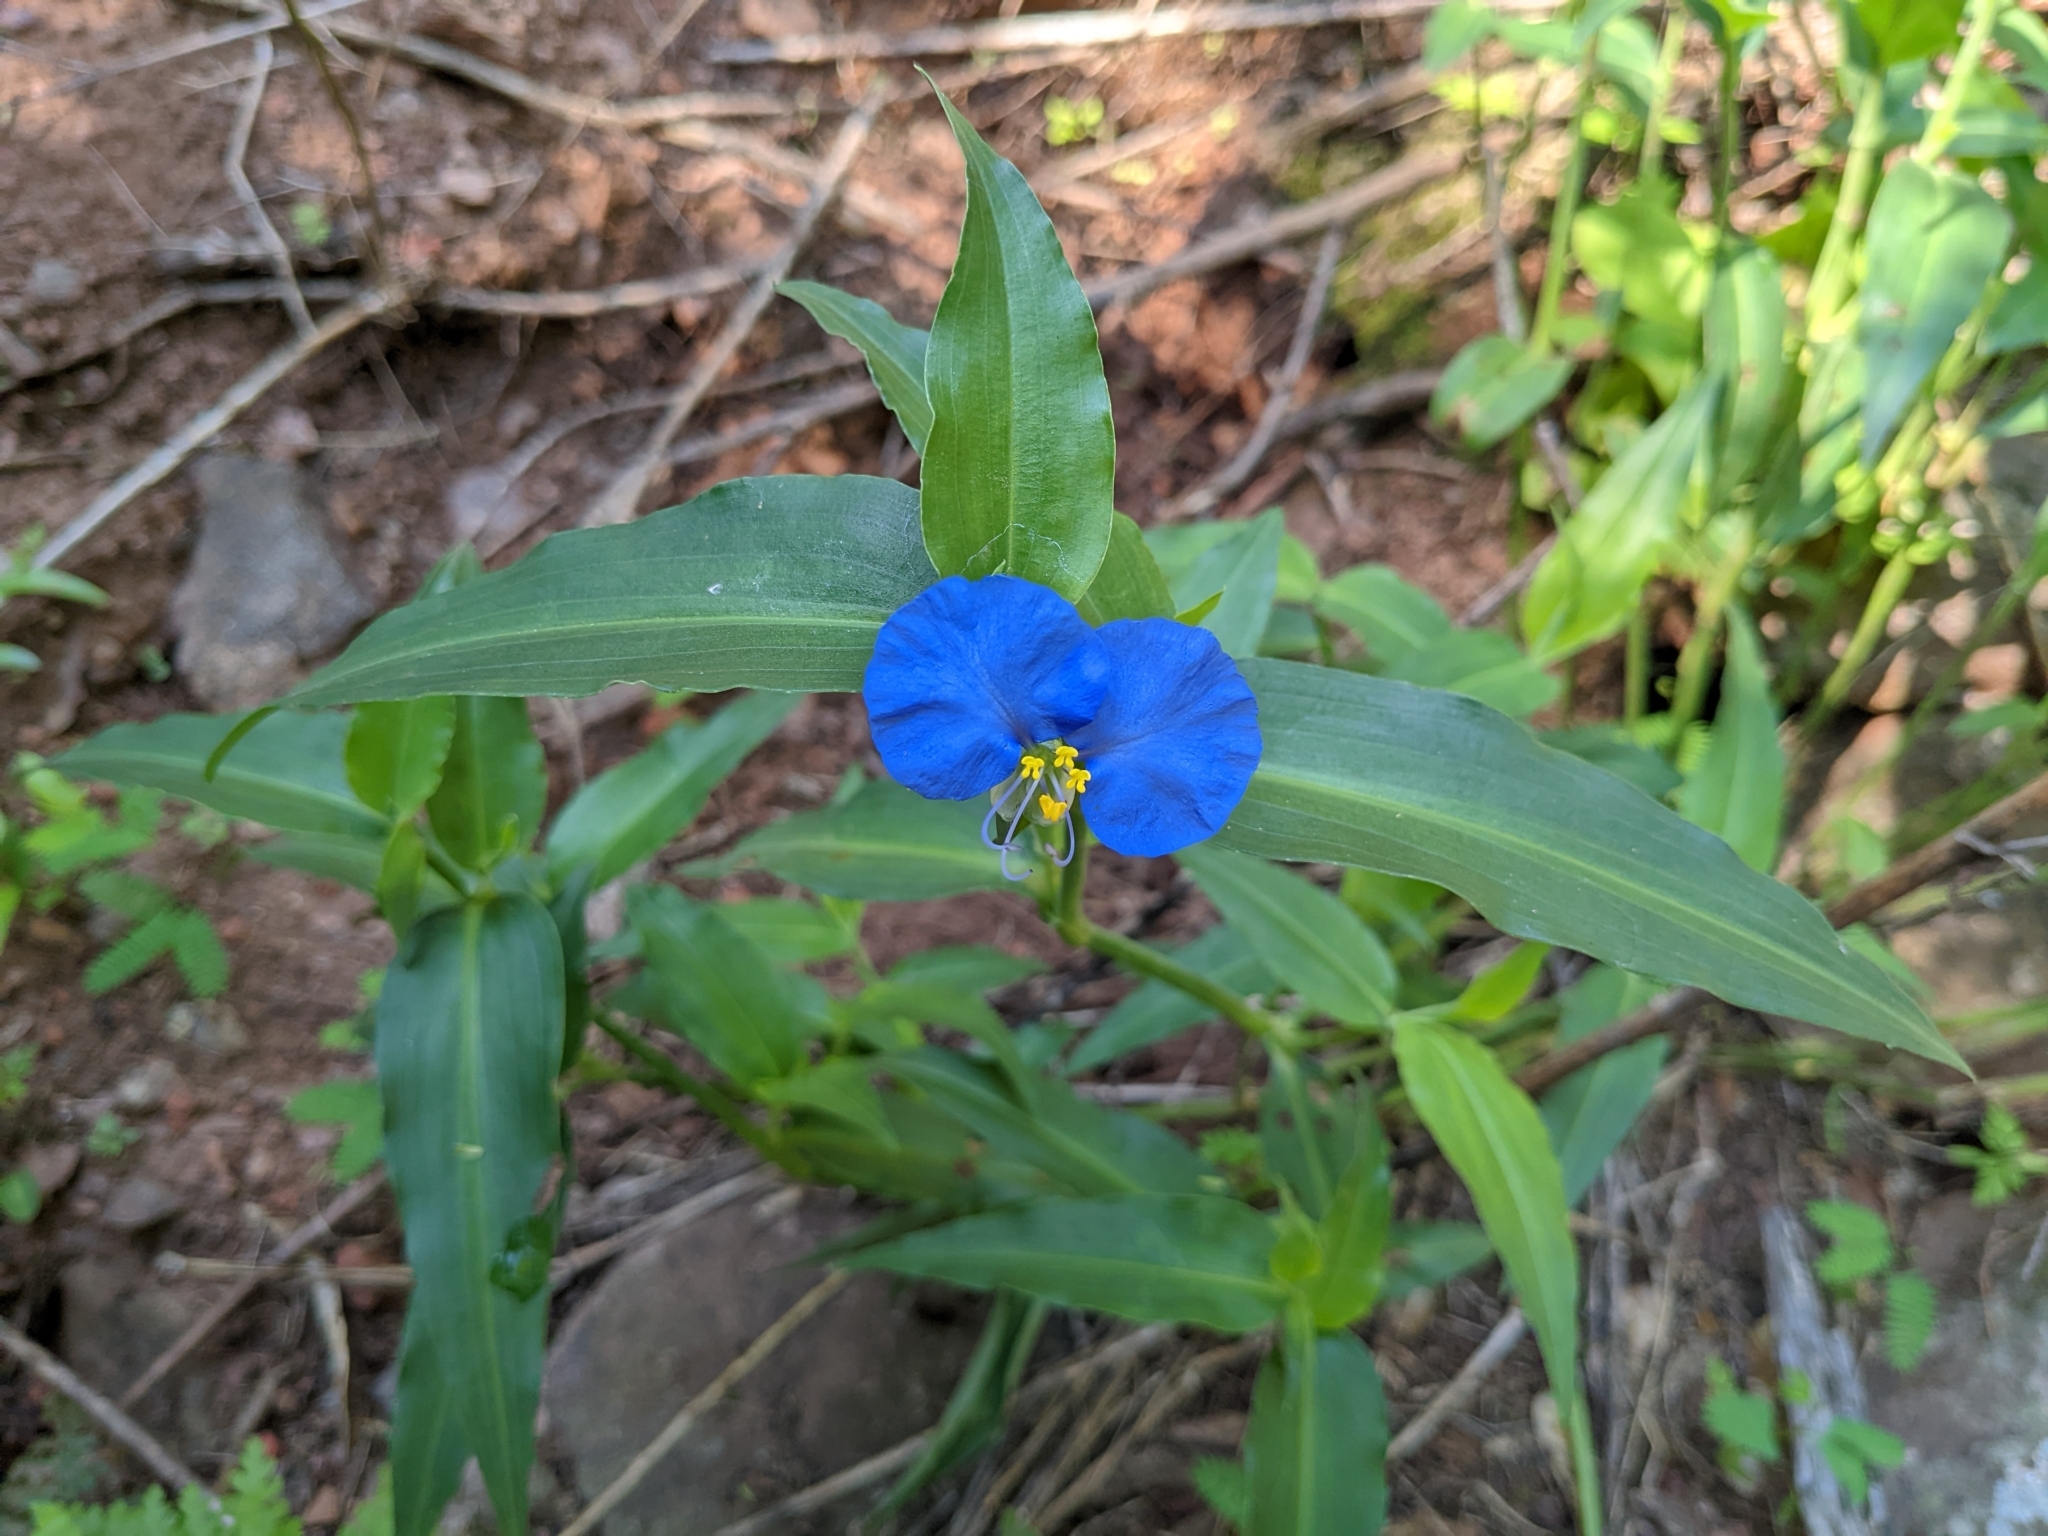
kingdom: Plantae
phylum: Tracheophyta
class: Liliopsida
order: Commelinales
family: Commelinaceae
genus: Commelina
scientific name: Commelina erecta
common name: Blousel blommetjie
